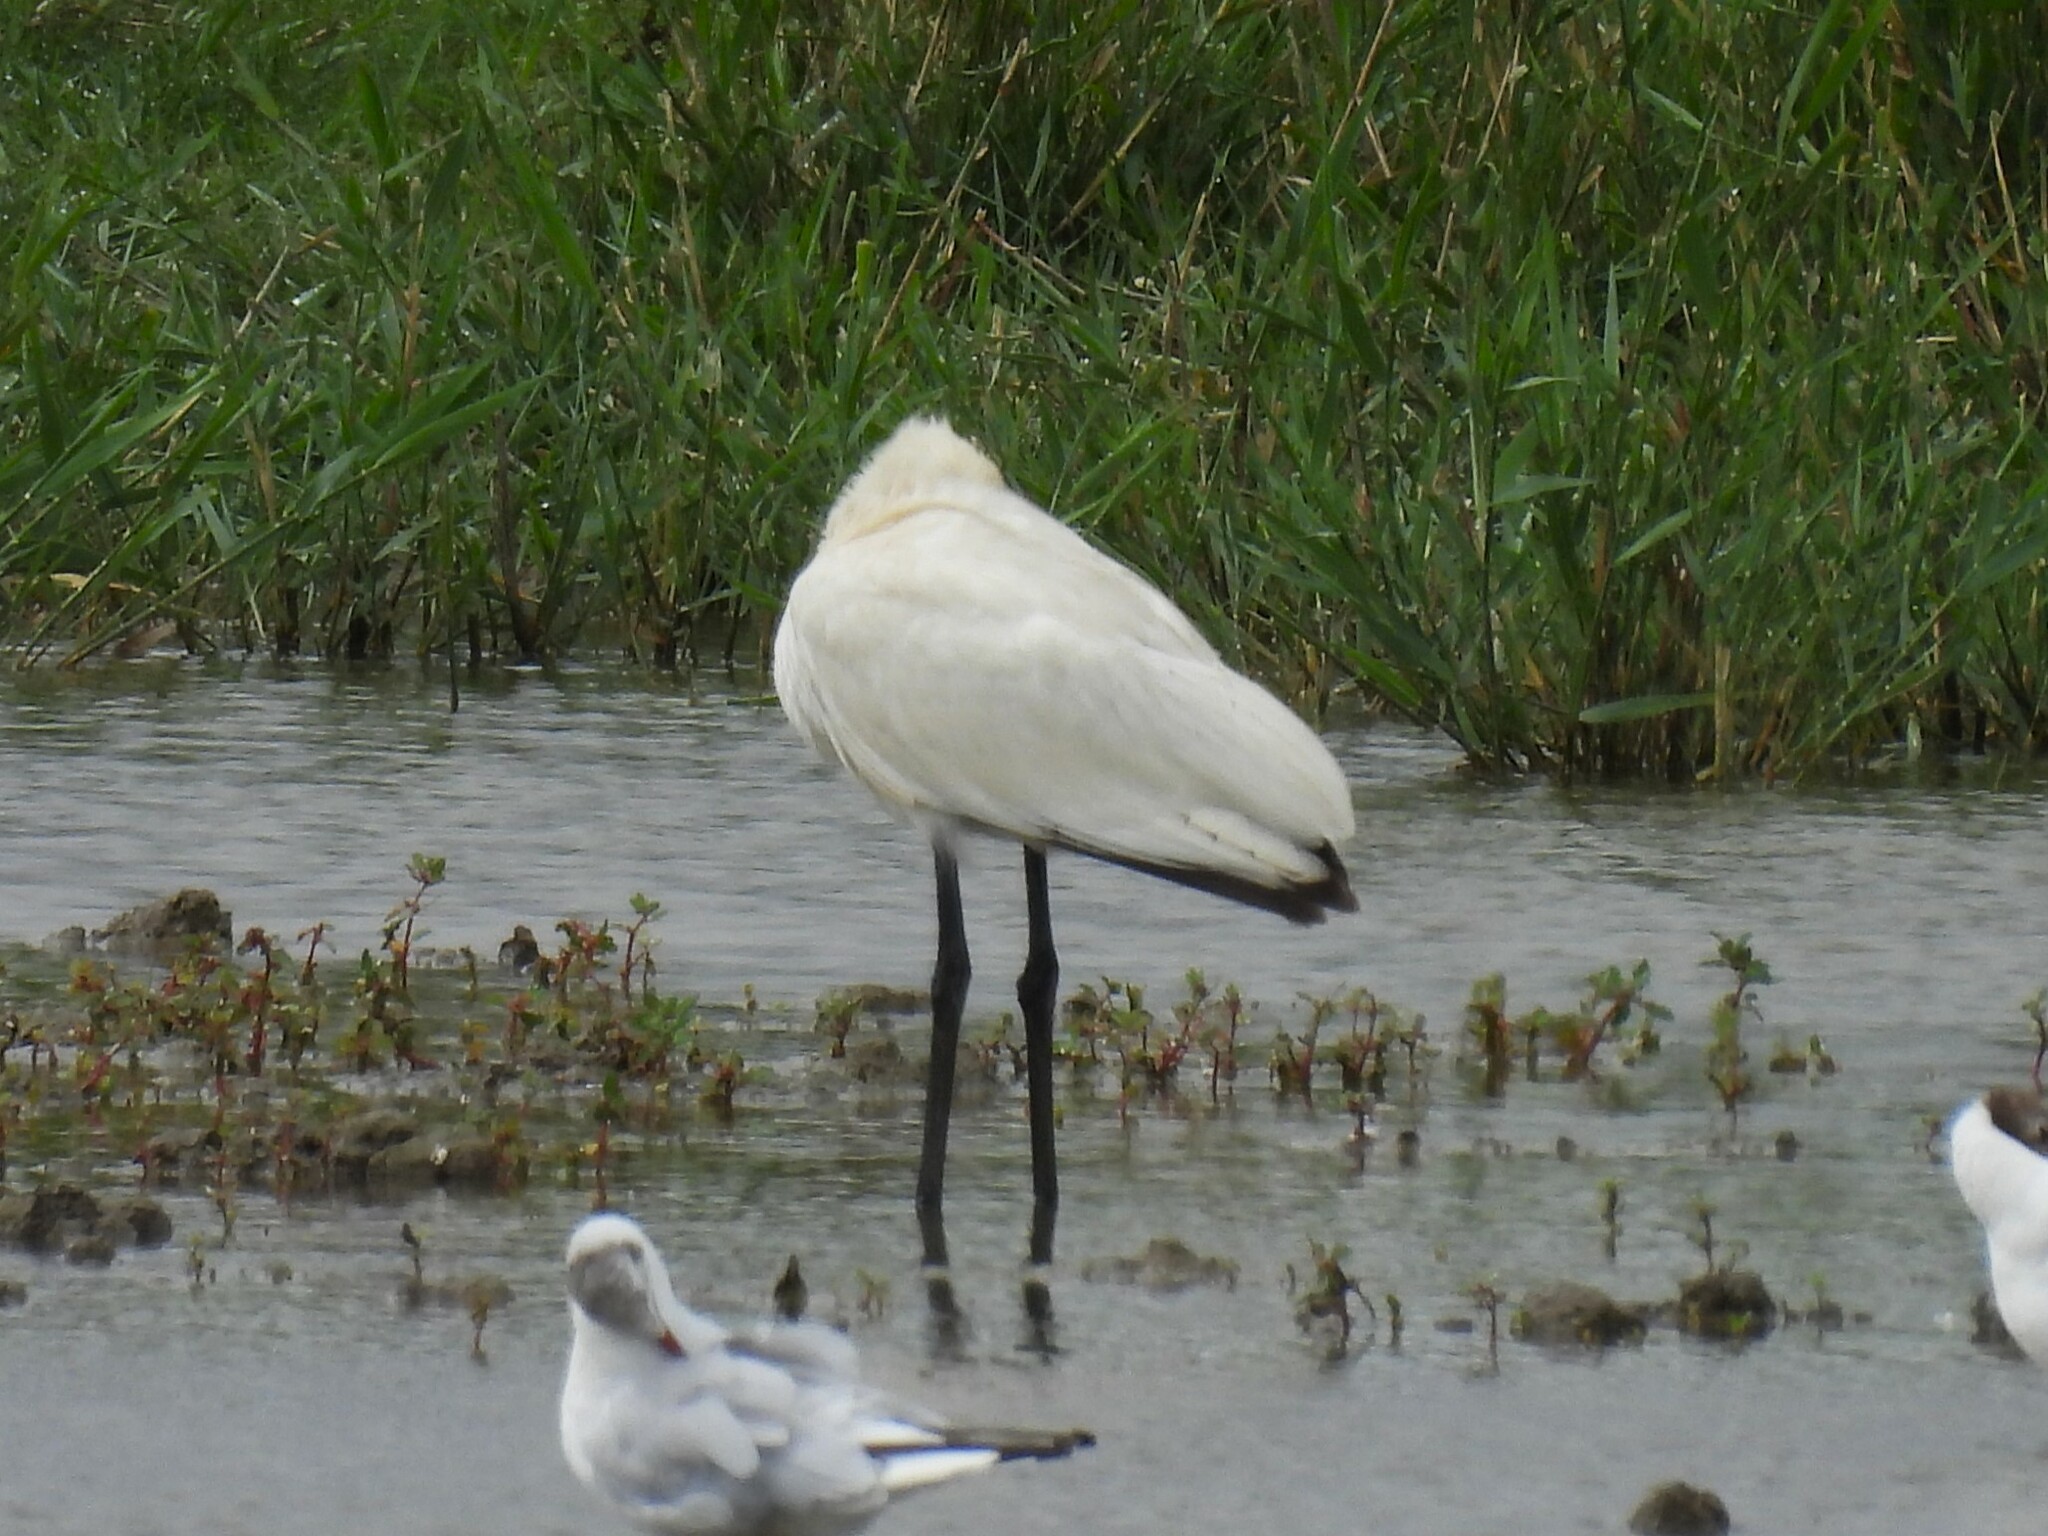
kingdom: Animalia
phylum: Chordata
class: Aves
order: Pelecaniformes
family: Threskiornithidae
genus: Platalea
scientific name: Platalea leucorodia
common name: Eurasian spoonbill
